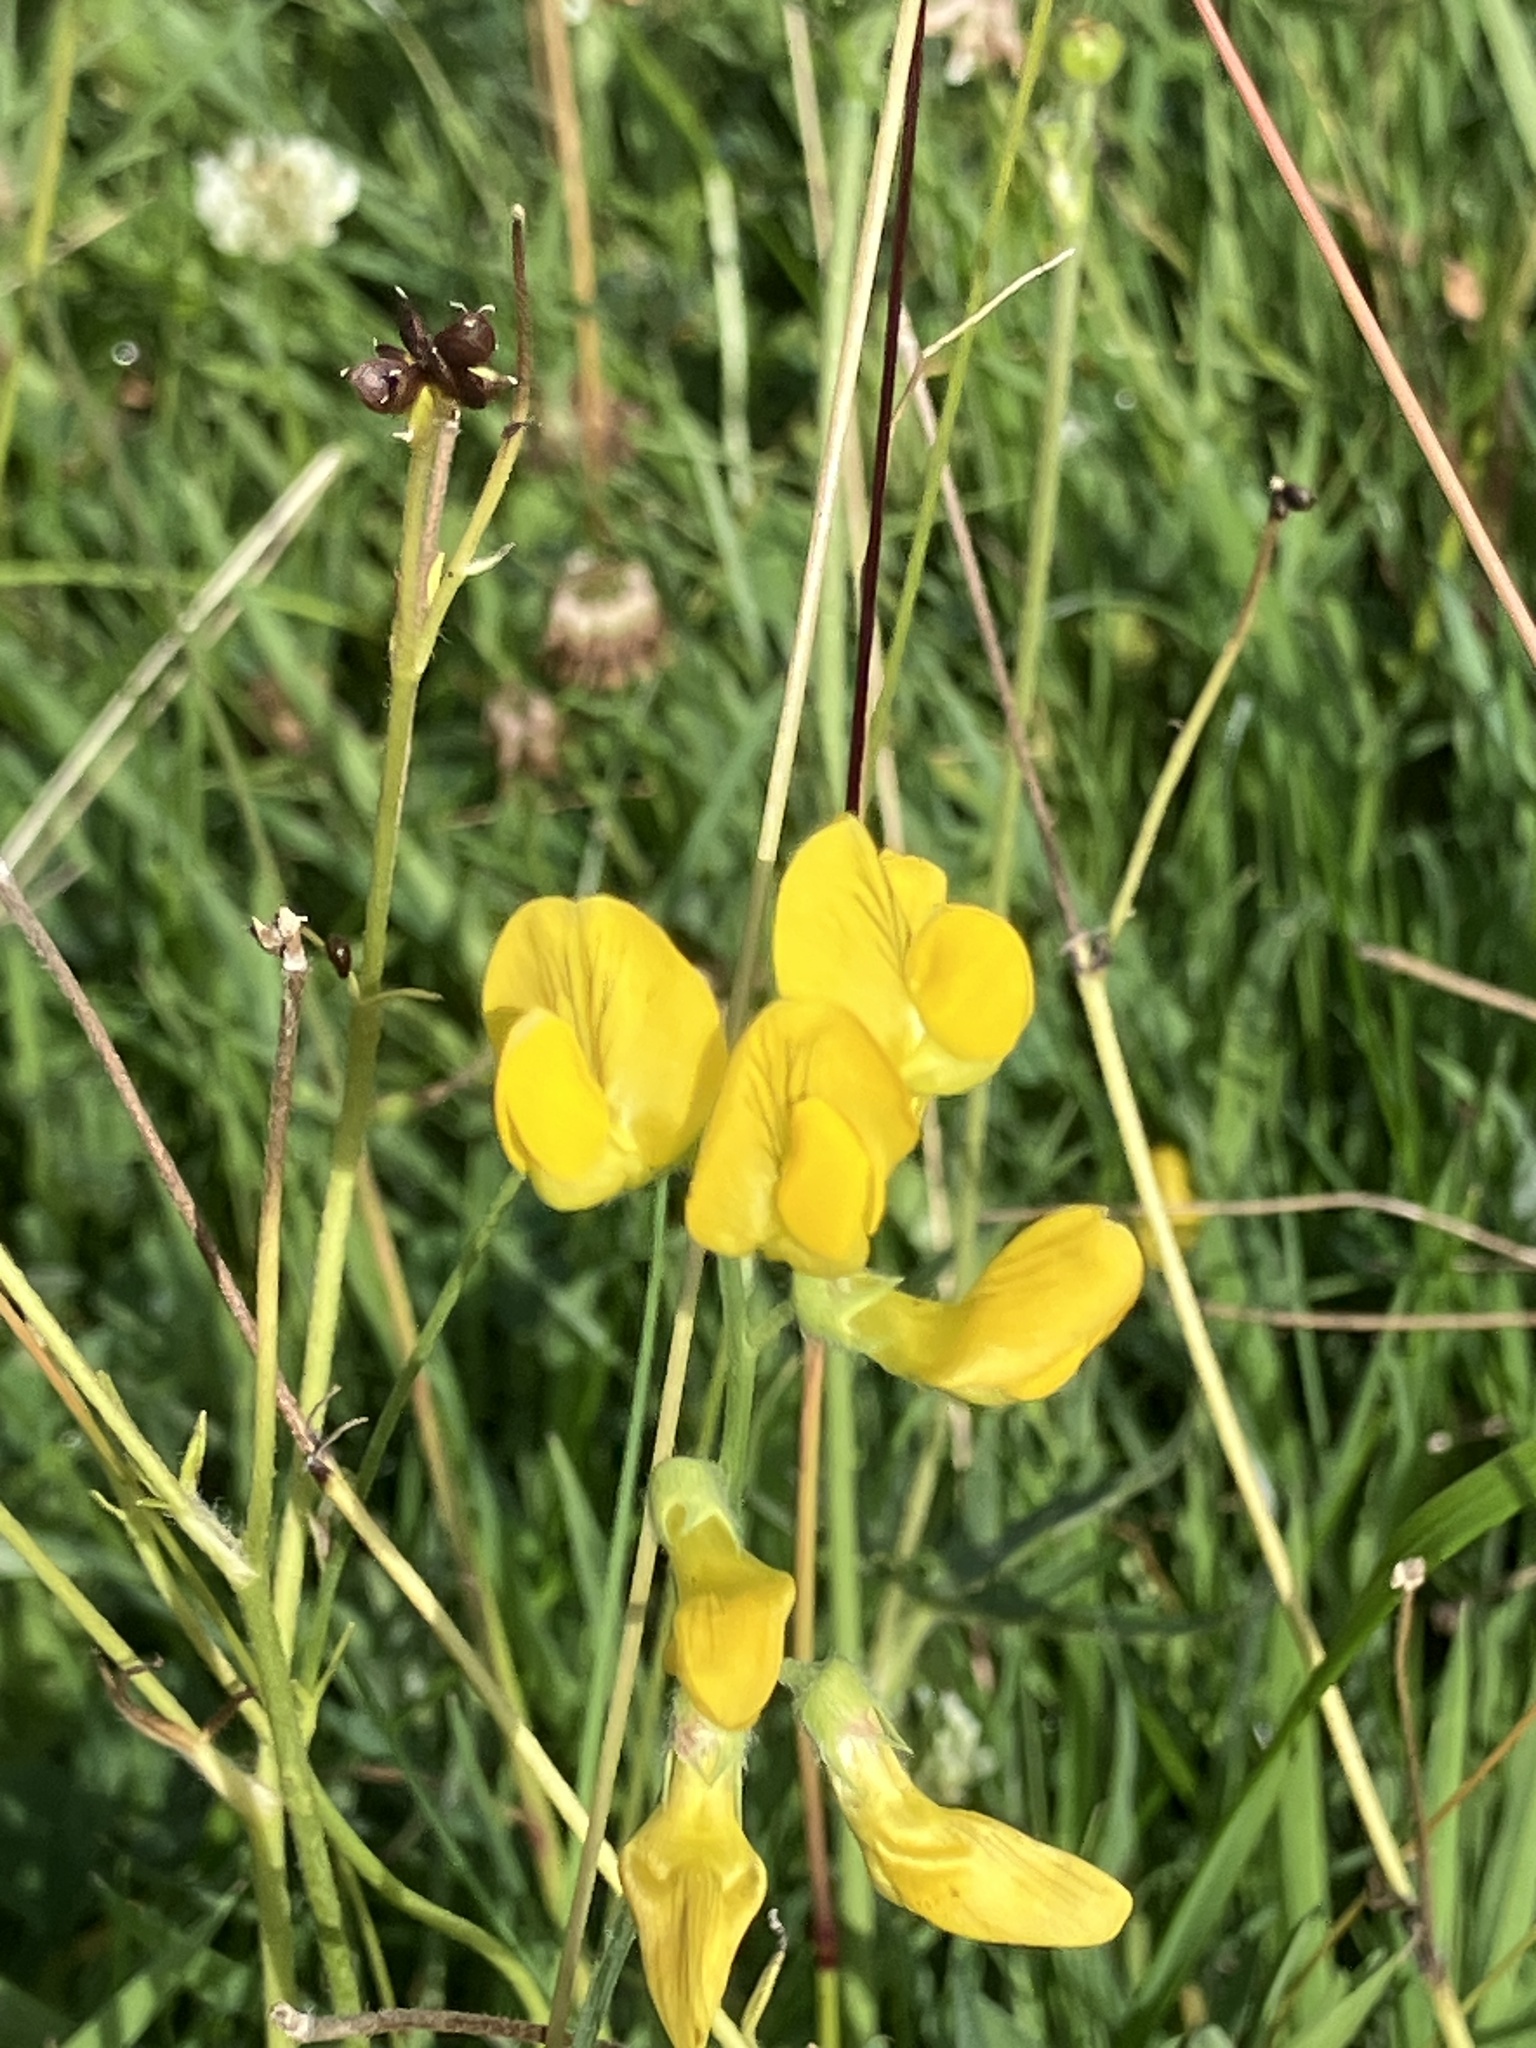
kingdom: Plantae
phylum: Tracheophyta
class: Magnoliopsida
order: Fabales
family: Fabaceae
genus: Lathyrus
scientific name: Lathyrus pratensis
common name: Meadow vetchling
